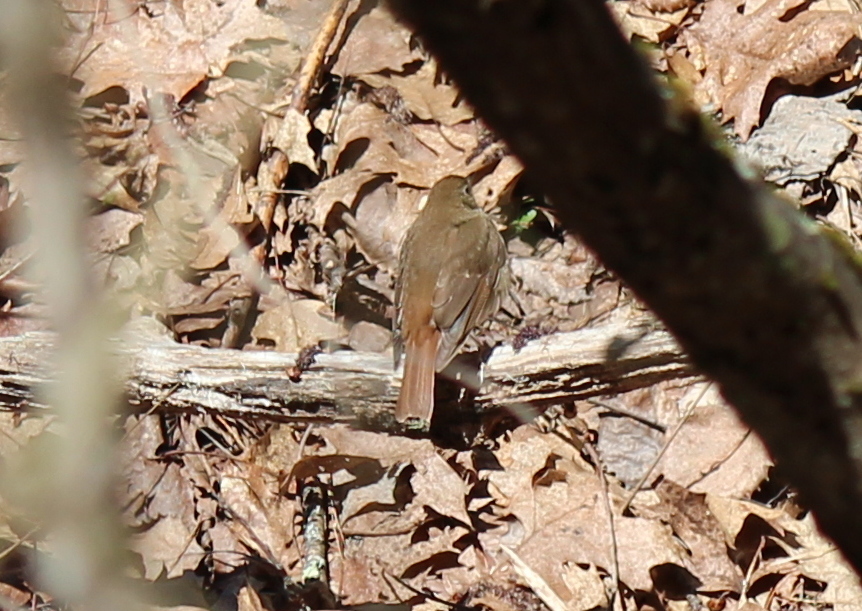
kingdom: Animalia
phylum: Chordata
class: Aves
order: Passeriformes
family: Turdidae
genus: Catharus
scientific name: Catharus guttatus
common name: Hermit thrush
